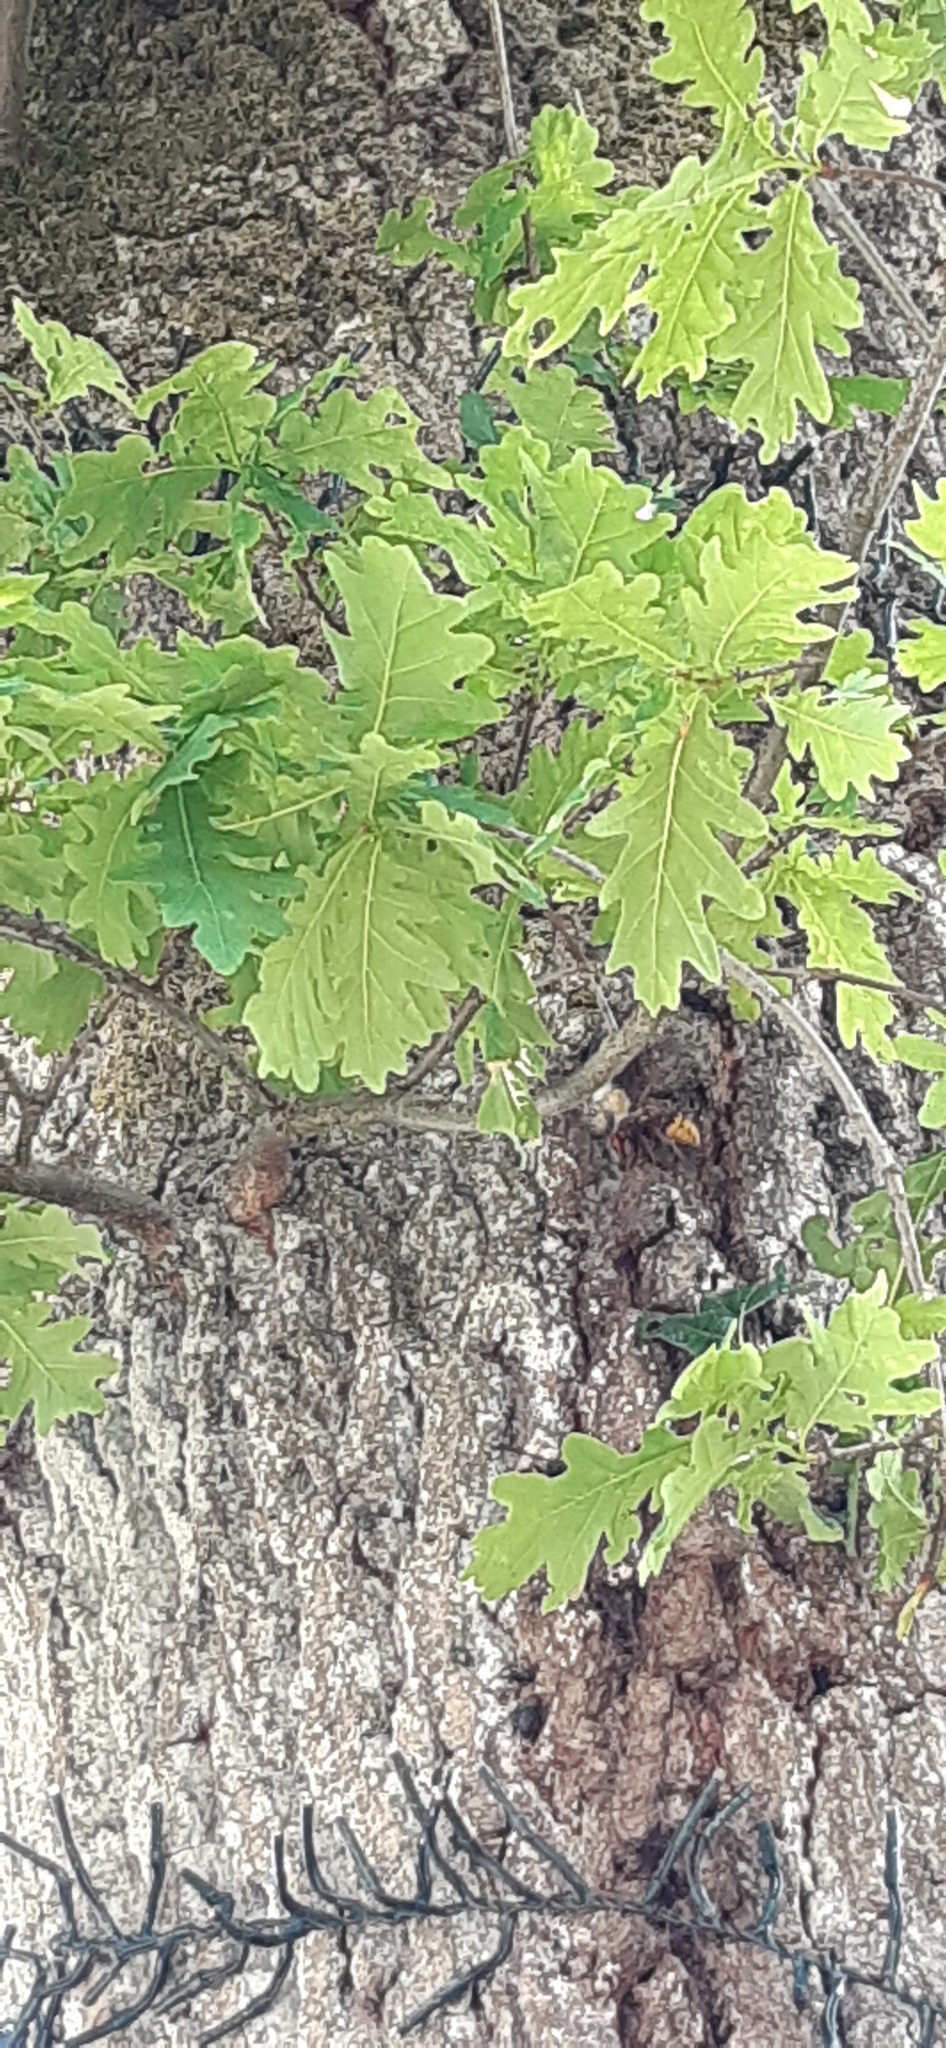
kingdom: Animalia
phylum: Arthropoda
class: Insecta
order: Hymenoptera
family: Vespidae
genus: Vespa
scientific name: Vespa crabro
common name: Hornet
